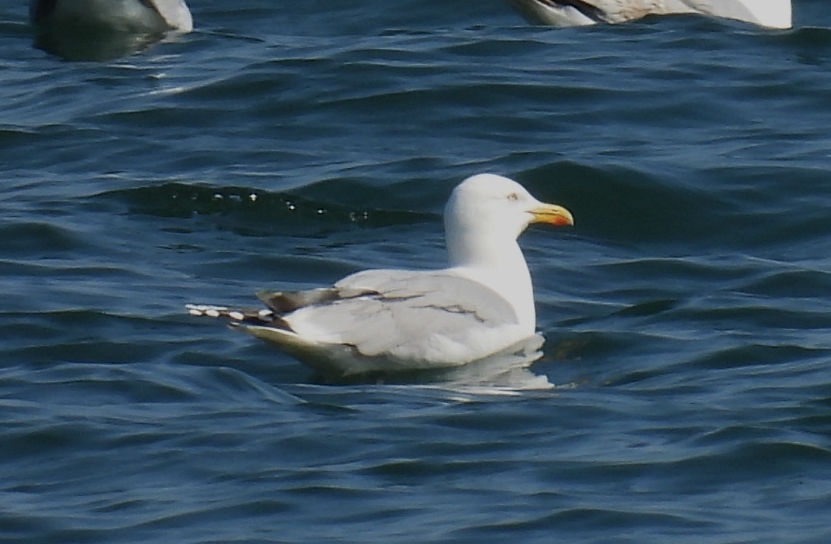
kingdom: Animalia
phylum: Chordata
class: Aves
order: Charadriiformes
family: Laridae
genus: Larus
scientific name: Larus argentatus
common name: Herring gull
